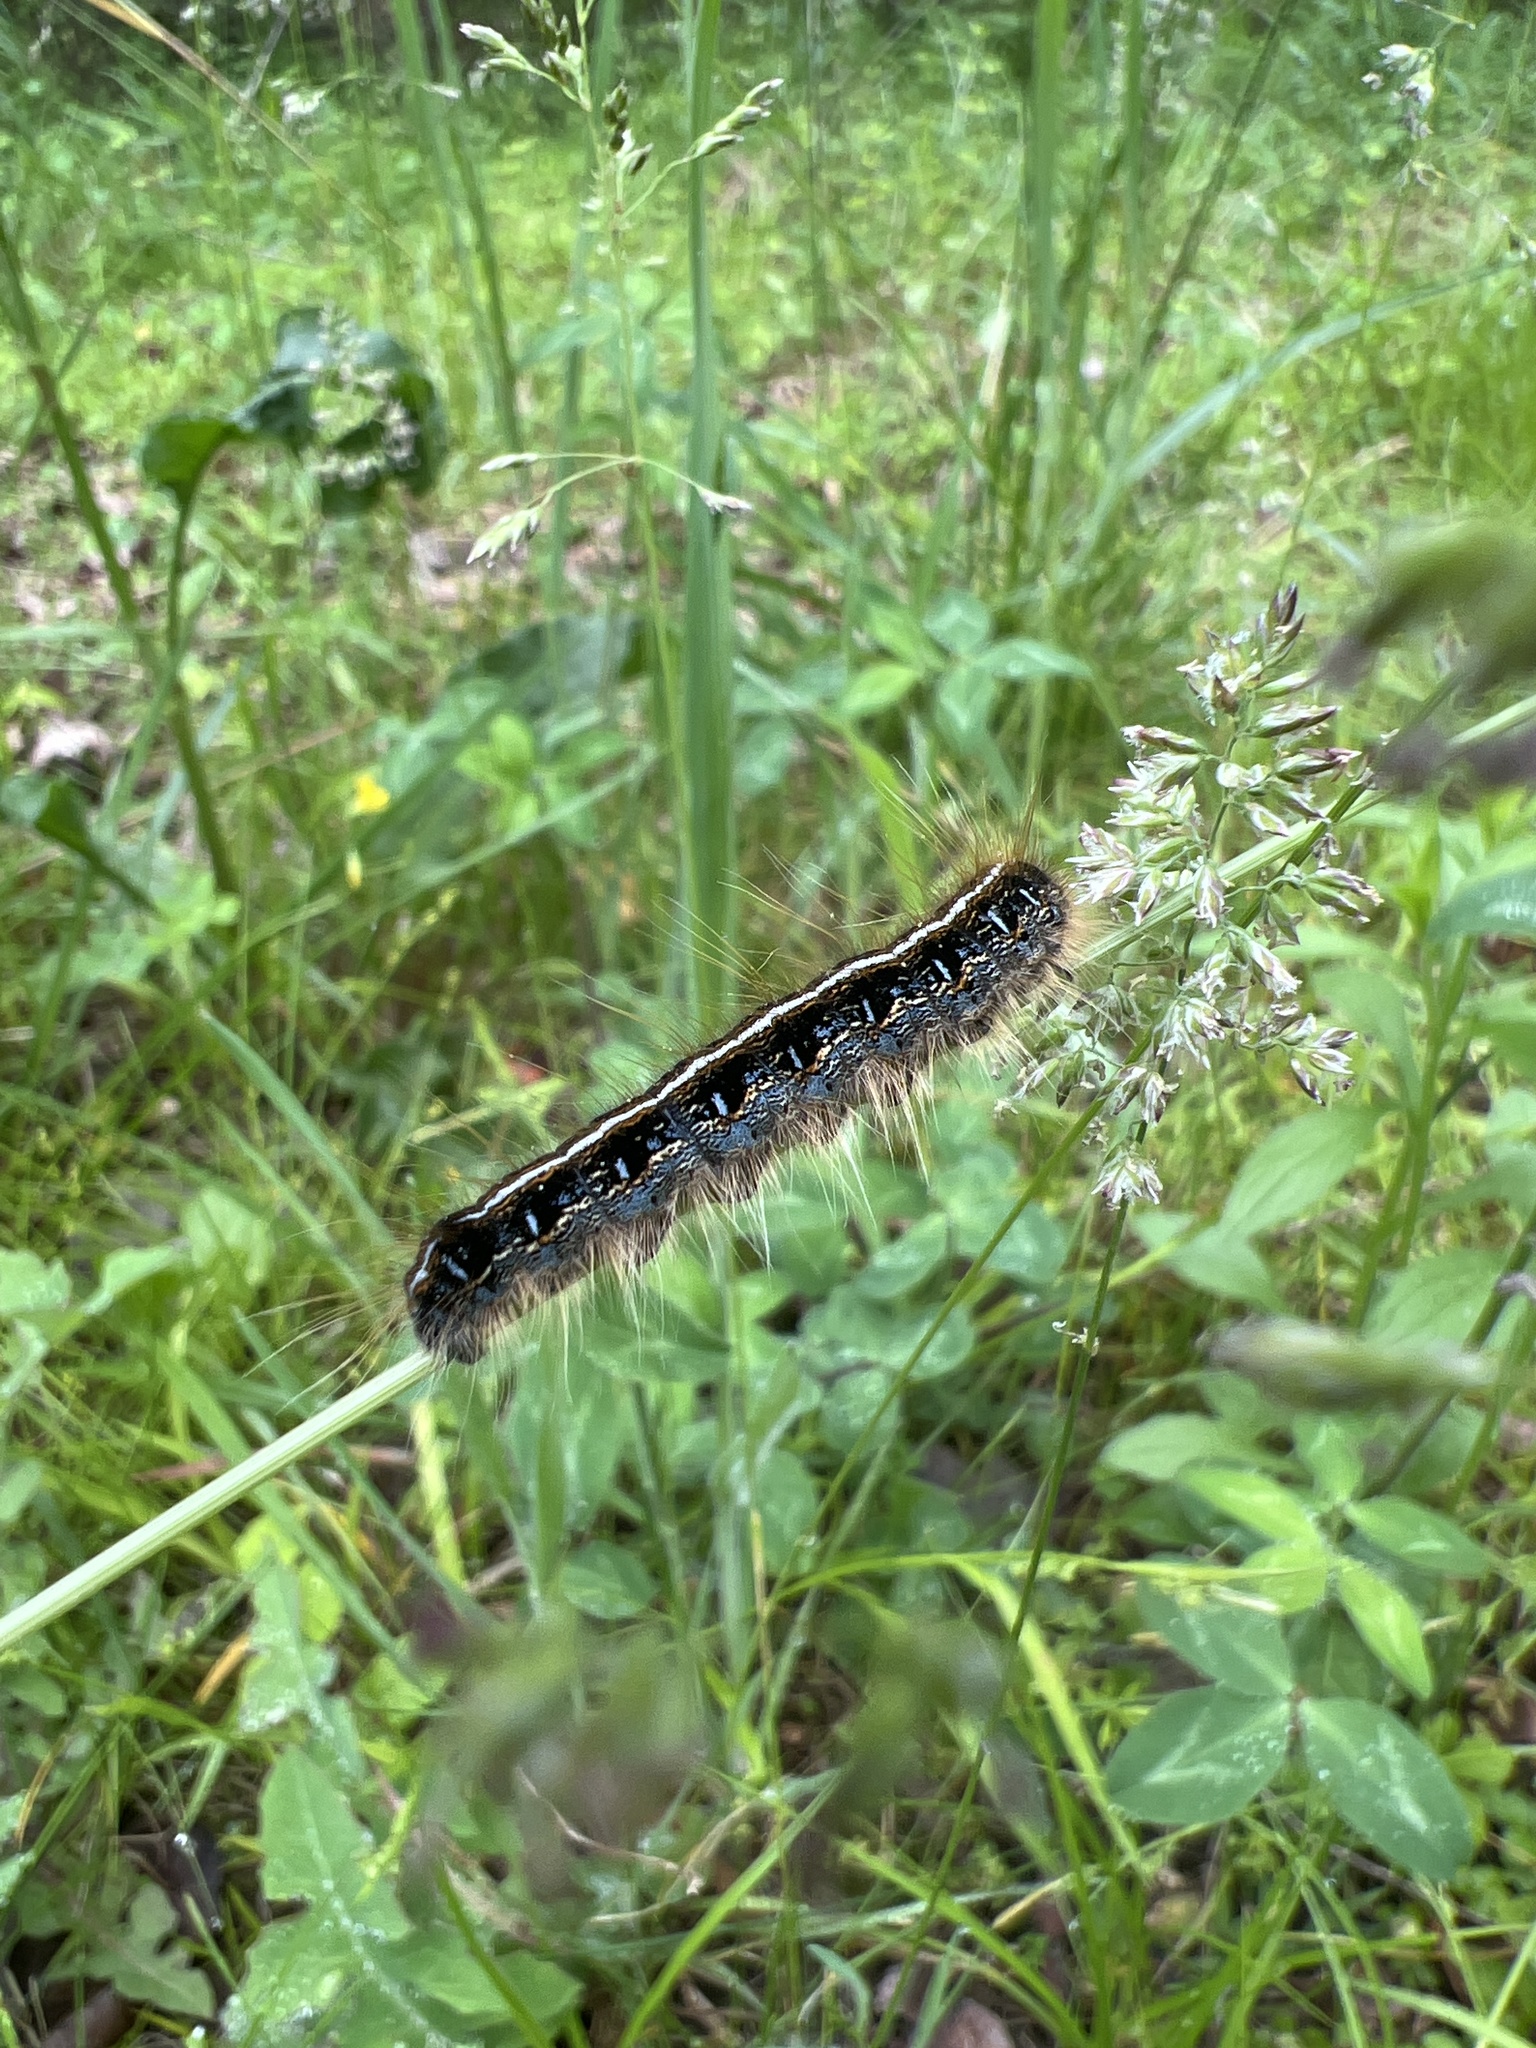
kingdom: Animalia
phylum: Arthropoda
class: Insecta
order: Lepidoptera
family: Lasiocampidae
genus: Malacosoma
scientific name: Malacosoma americana
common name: Eastern tent caterpillar moth
